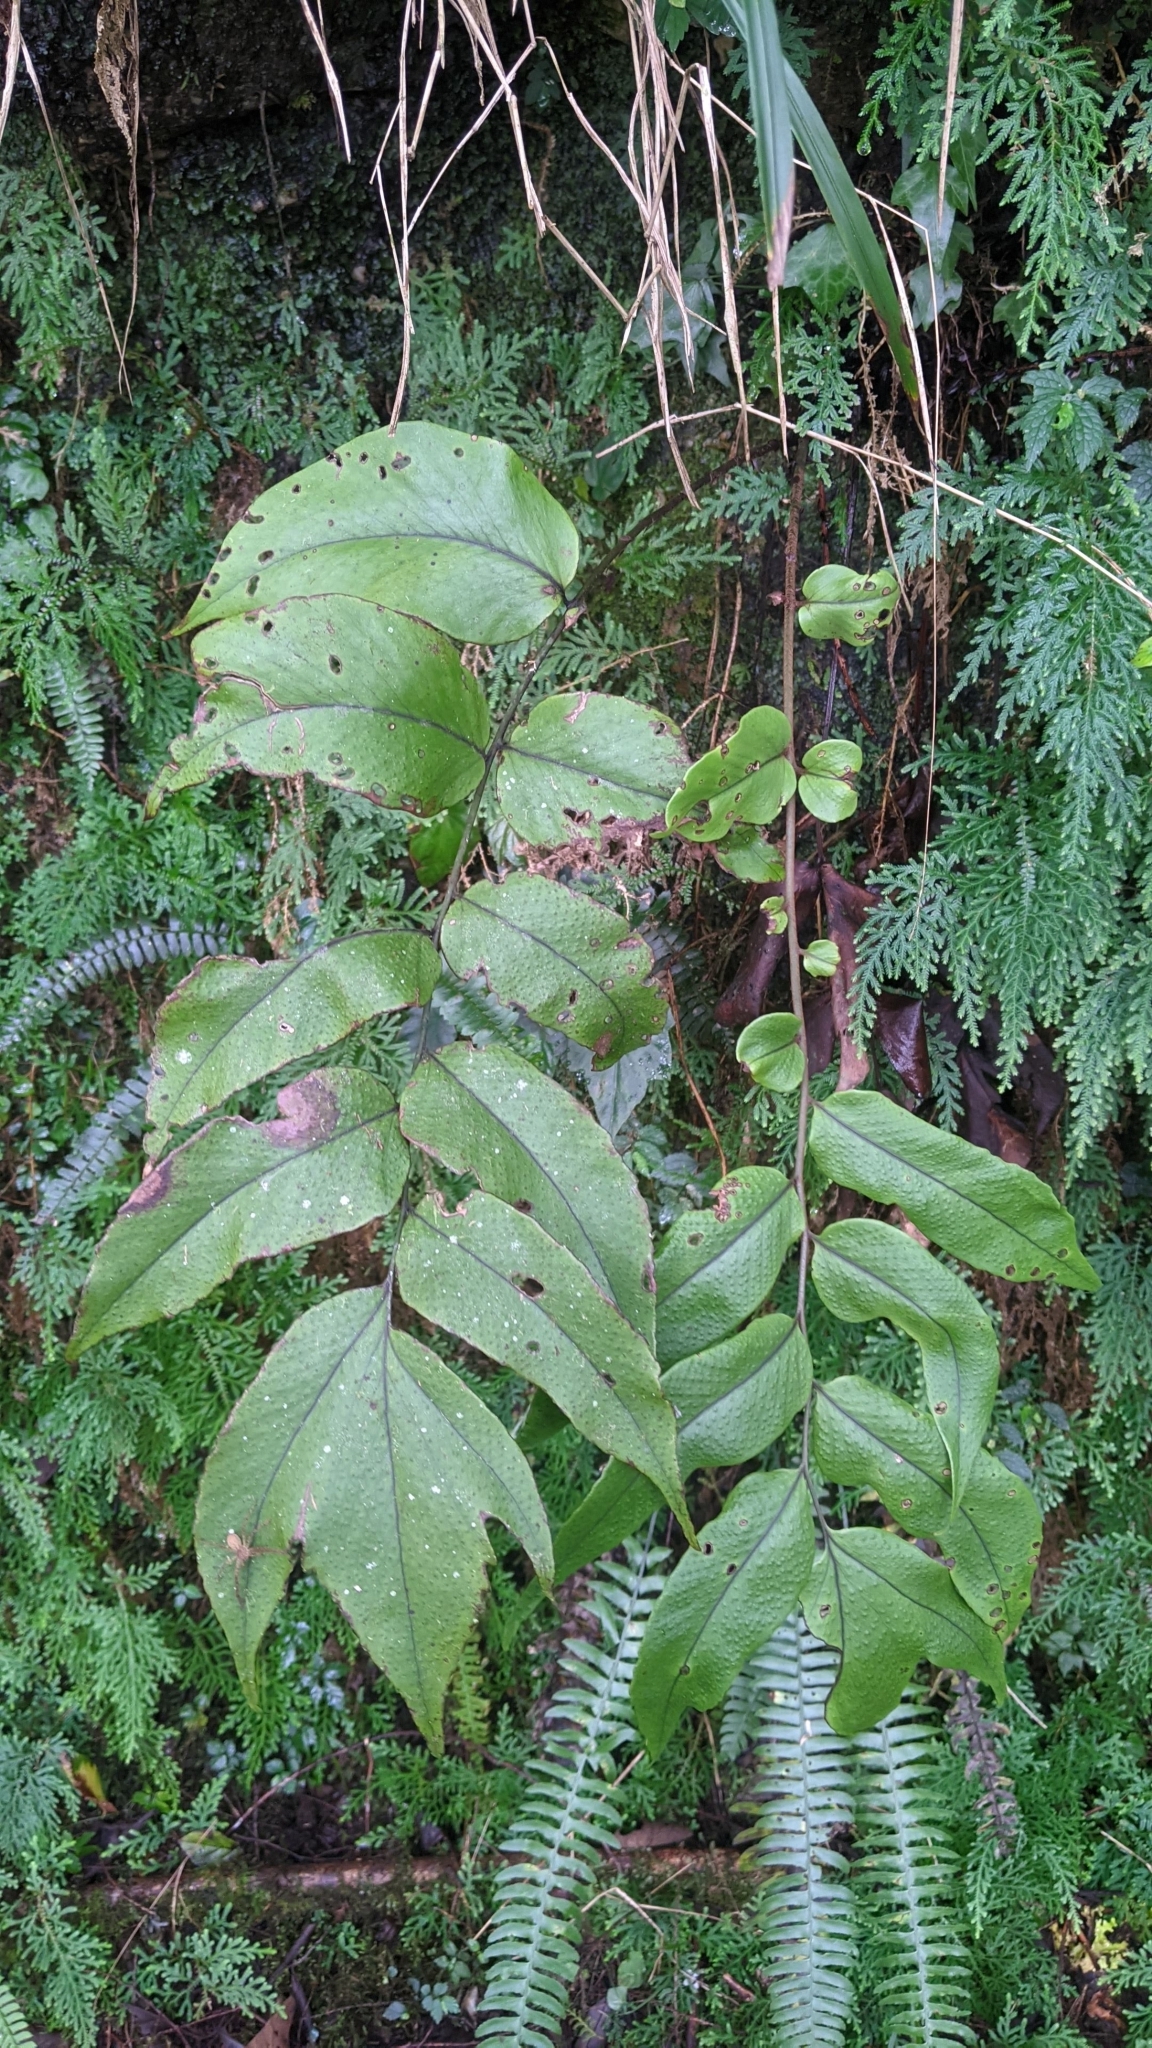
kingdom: Plantae
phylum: Tracheophyta
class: Polypodiopsida
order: Polypodiales
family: Dryopteridaceae
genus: Cyrtomium
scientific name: Cyrtomium macrophyllum
